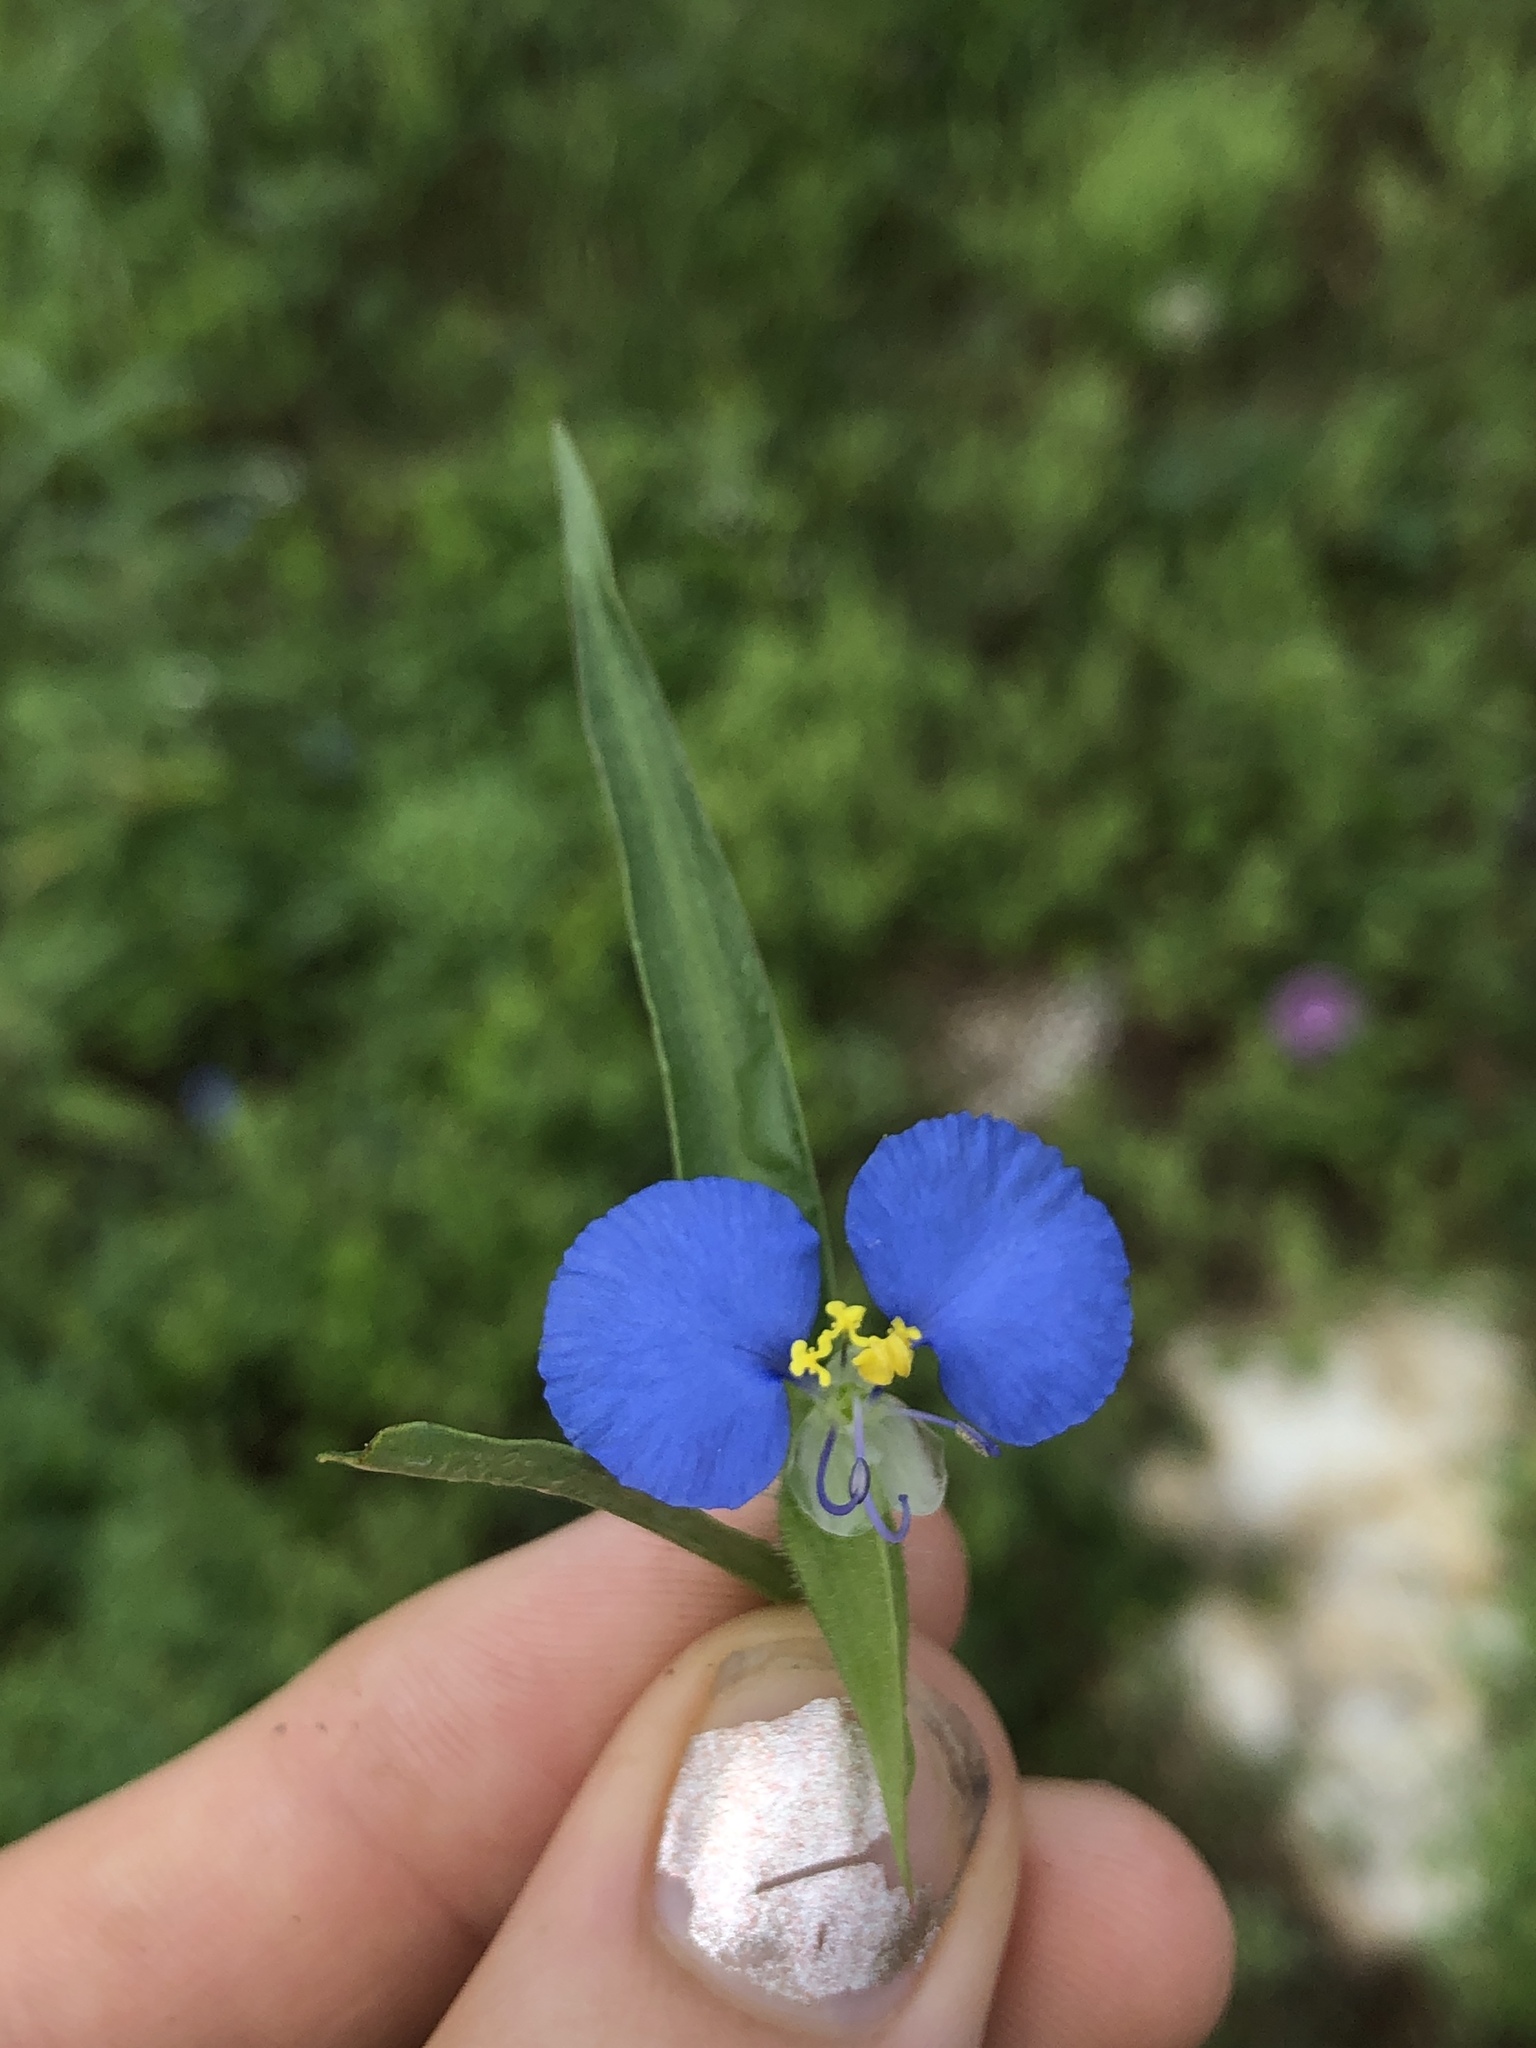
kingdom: Plantae
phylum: Tracheophyta
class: Liliopsida
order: Commelinales
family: Commelinaceae
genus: Commelina
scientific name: Commelina erecta
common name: Blousel blommetjie
